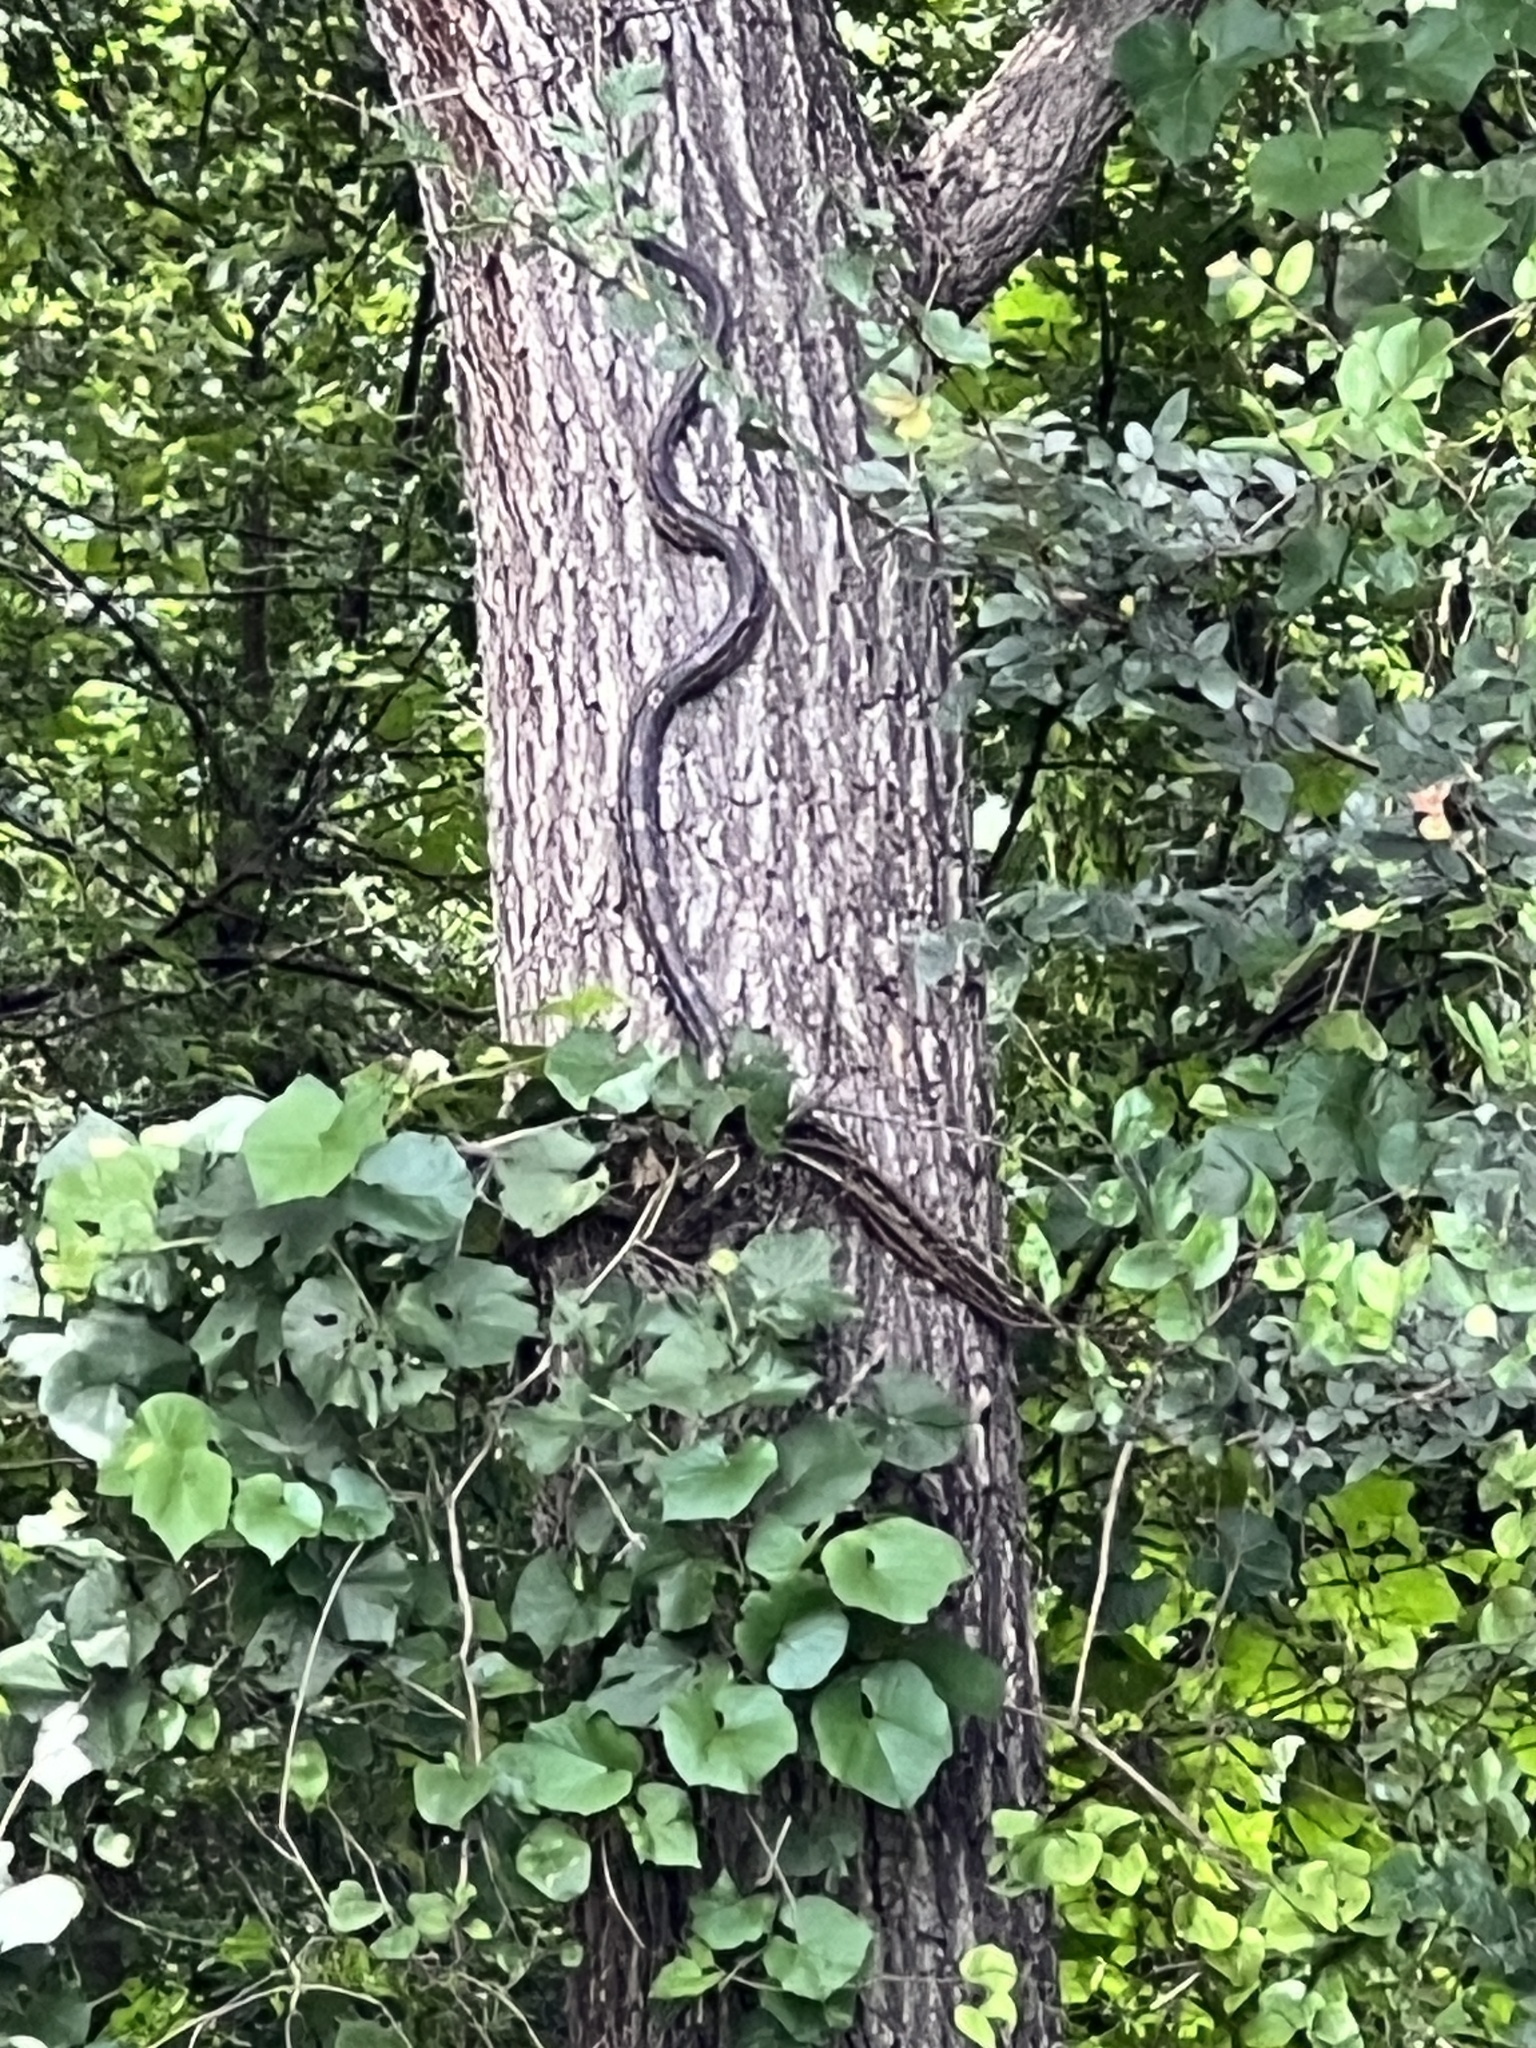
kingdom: Animalia
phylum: Chordata
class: Squamata
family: Colubridae
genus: Pantherophis
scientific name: Pantherophis obsoletus
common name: Black rat snake
